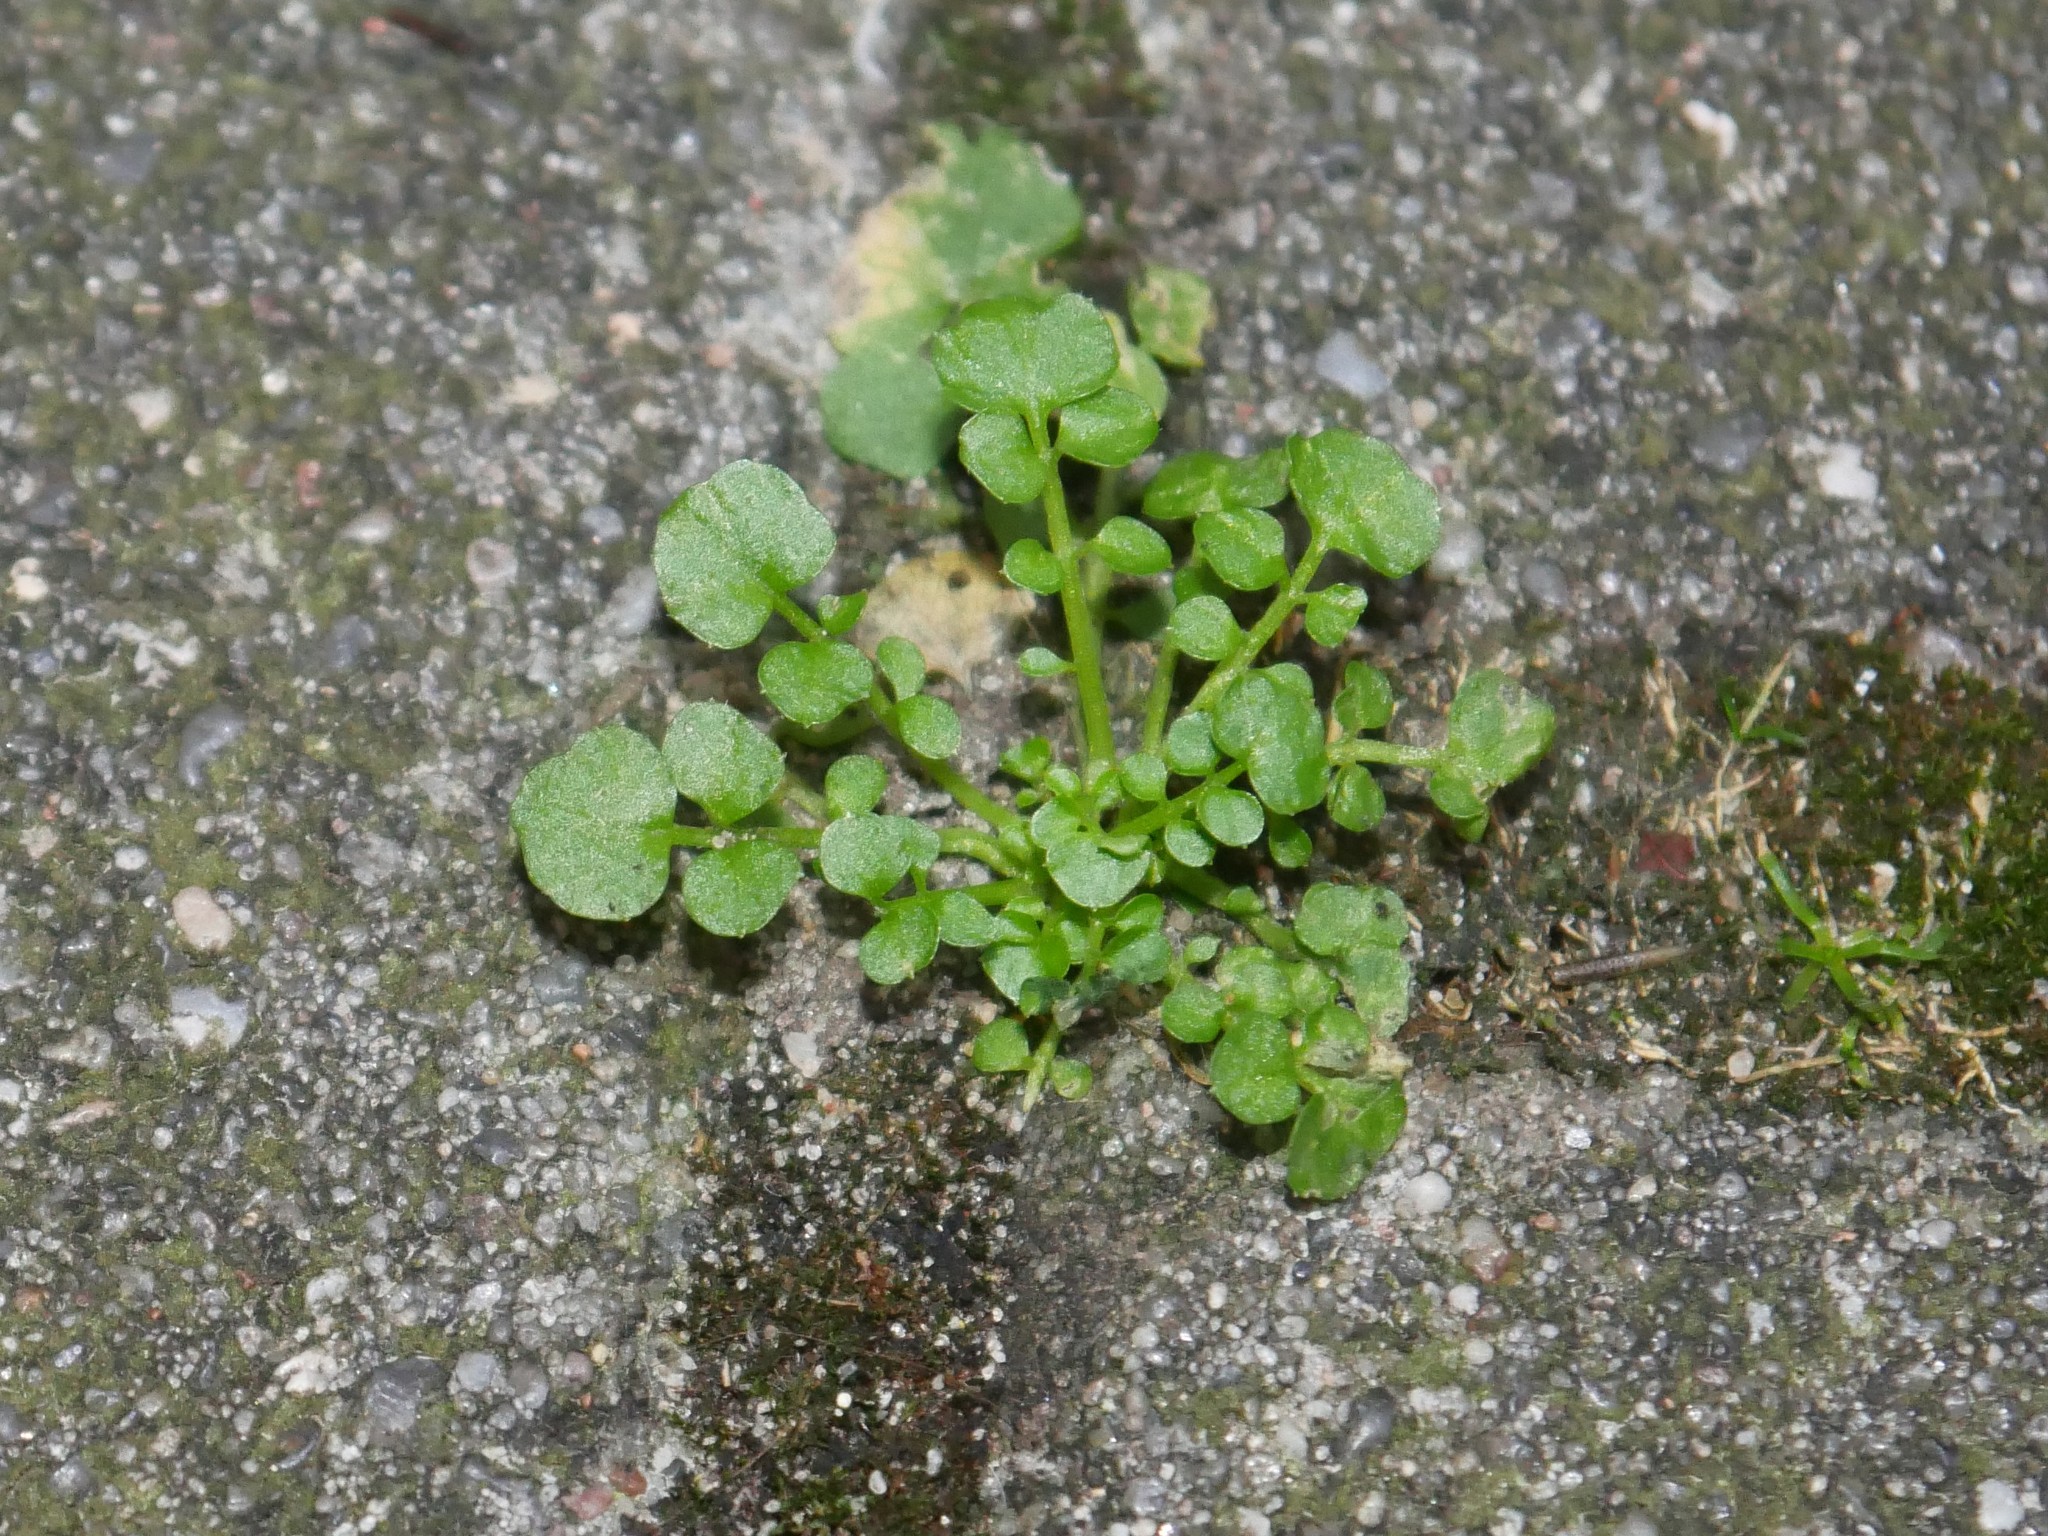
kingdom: Plantae
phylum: Tracheophyta
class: Magnoliopsida
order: Brassicales
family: Brassicaceae
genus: Cardamine
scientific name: Cardamine hirsuta
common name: Hairy bittercress
